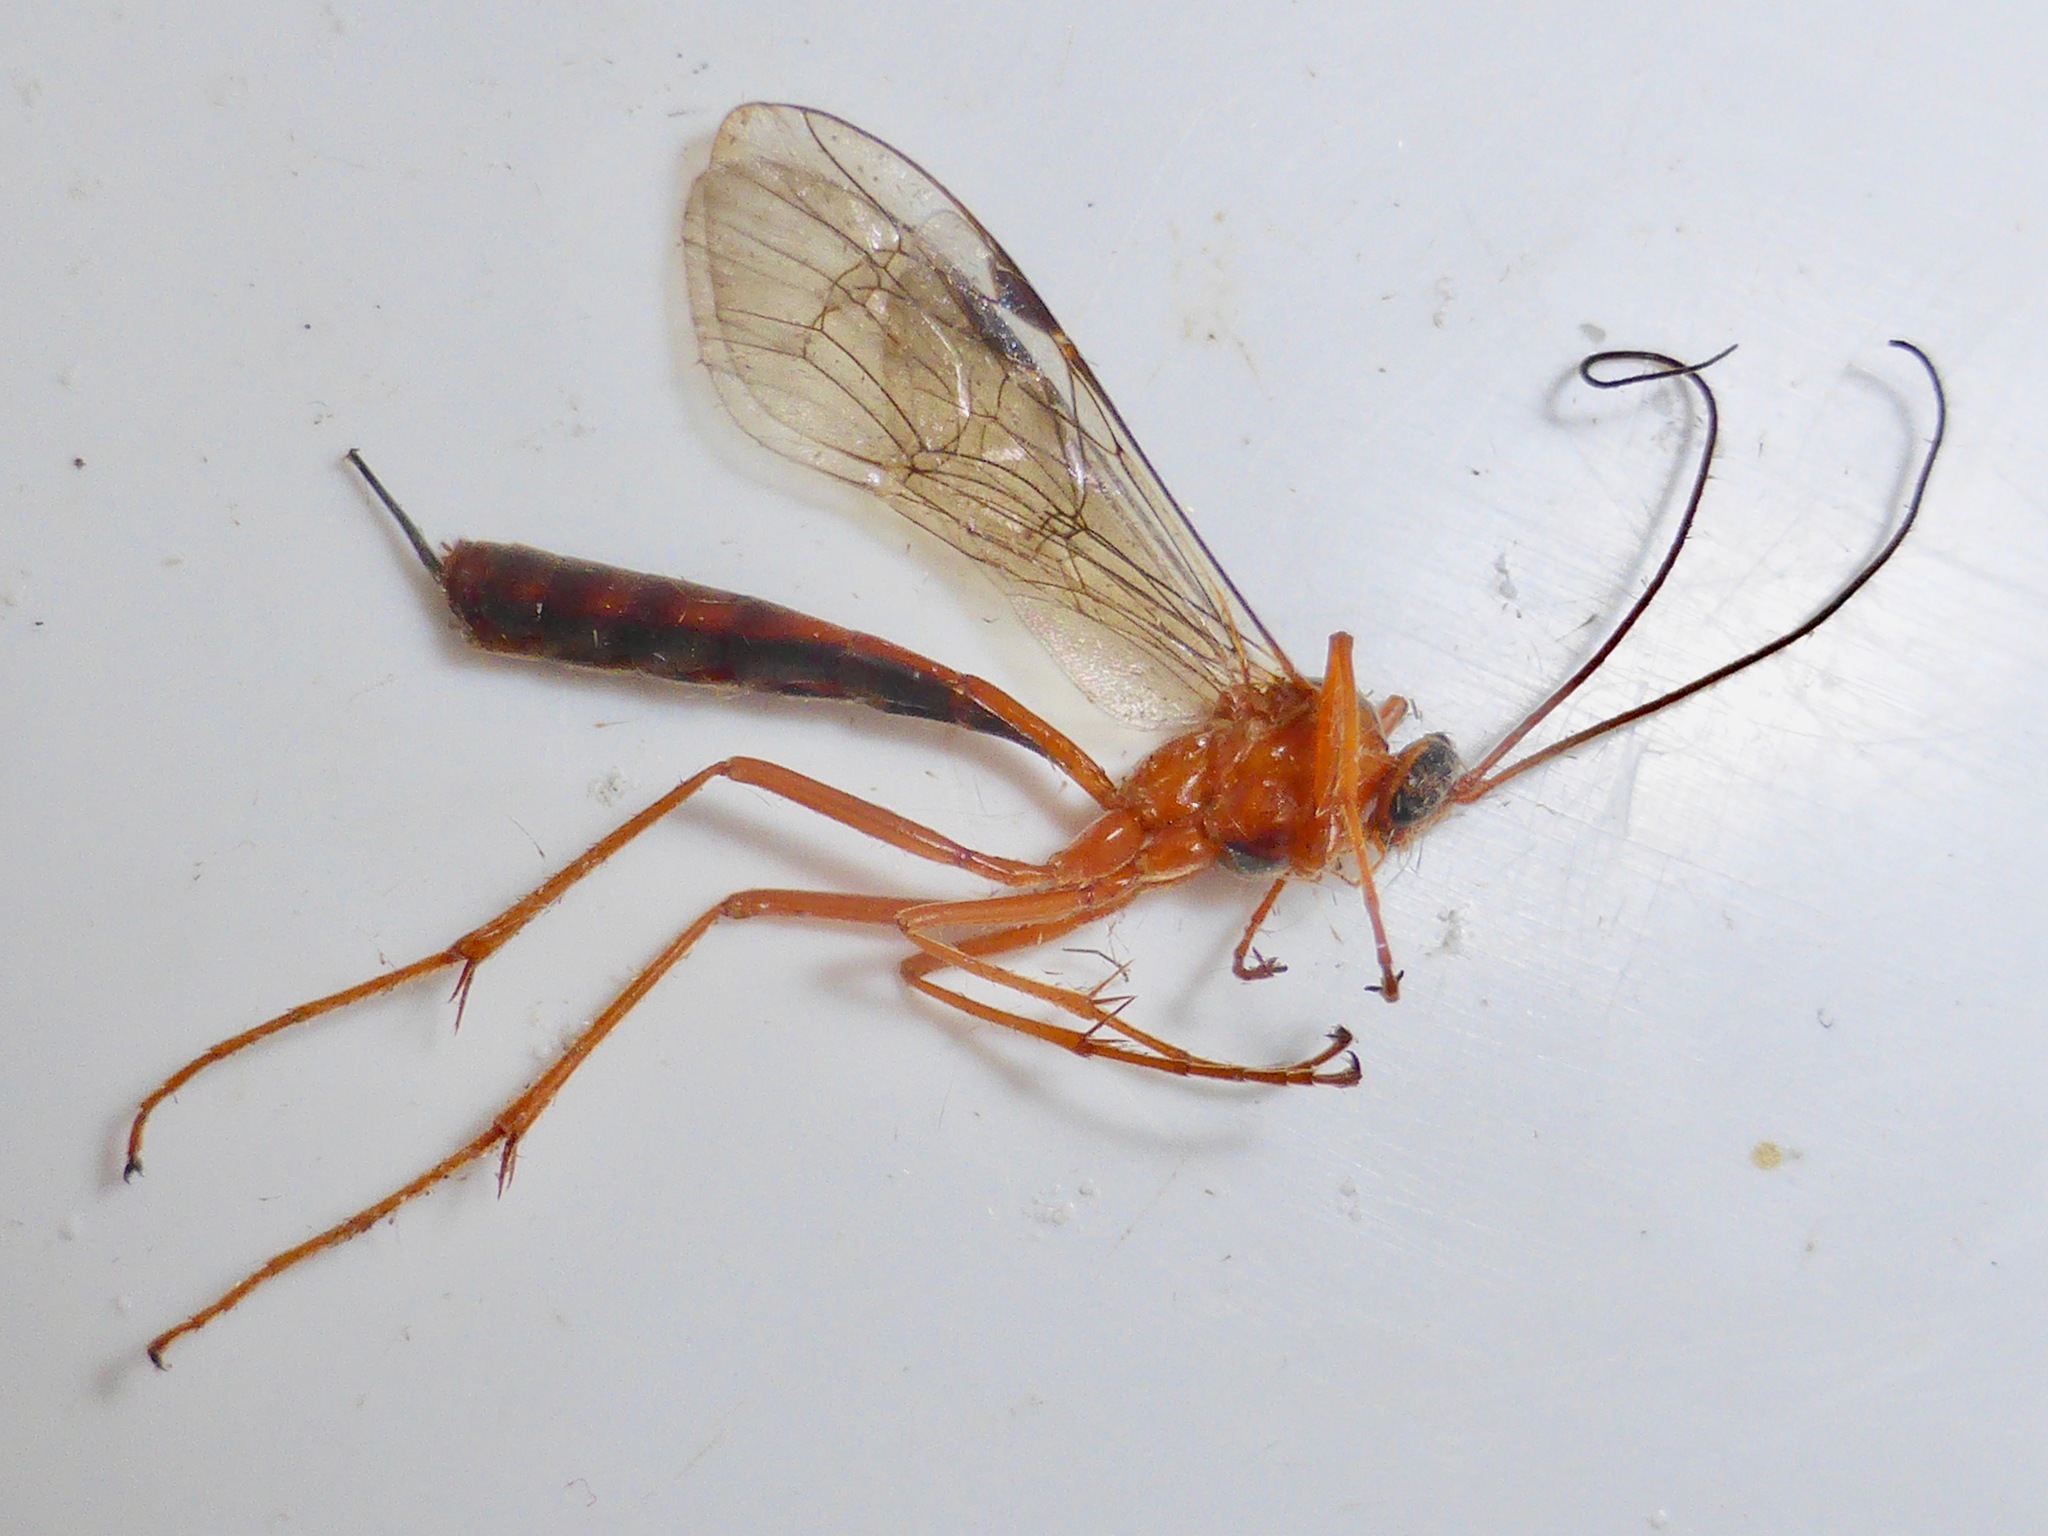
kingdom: Animalia
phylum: Arthropoda
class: Insecta
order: Hymenoptera
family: Ichneumonidae
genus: Netelia
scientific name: Netelia ephippiata
